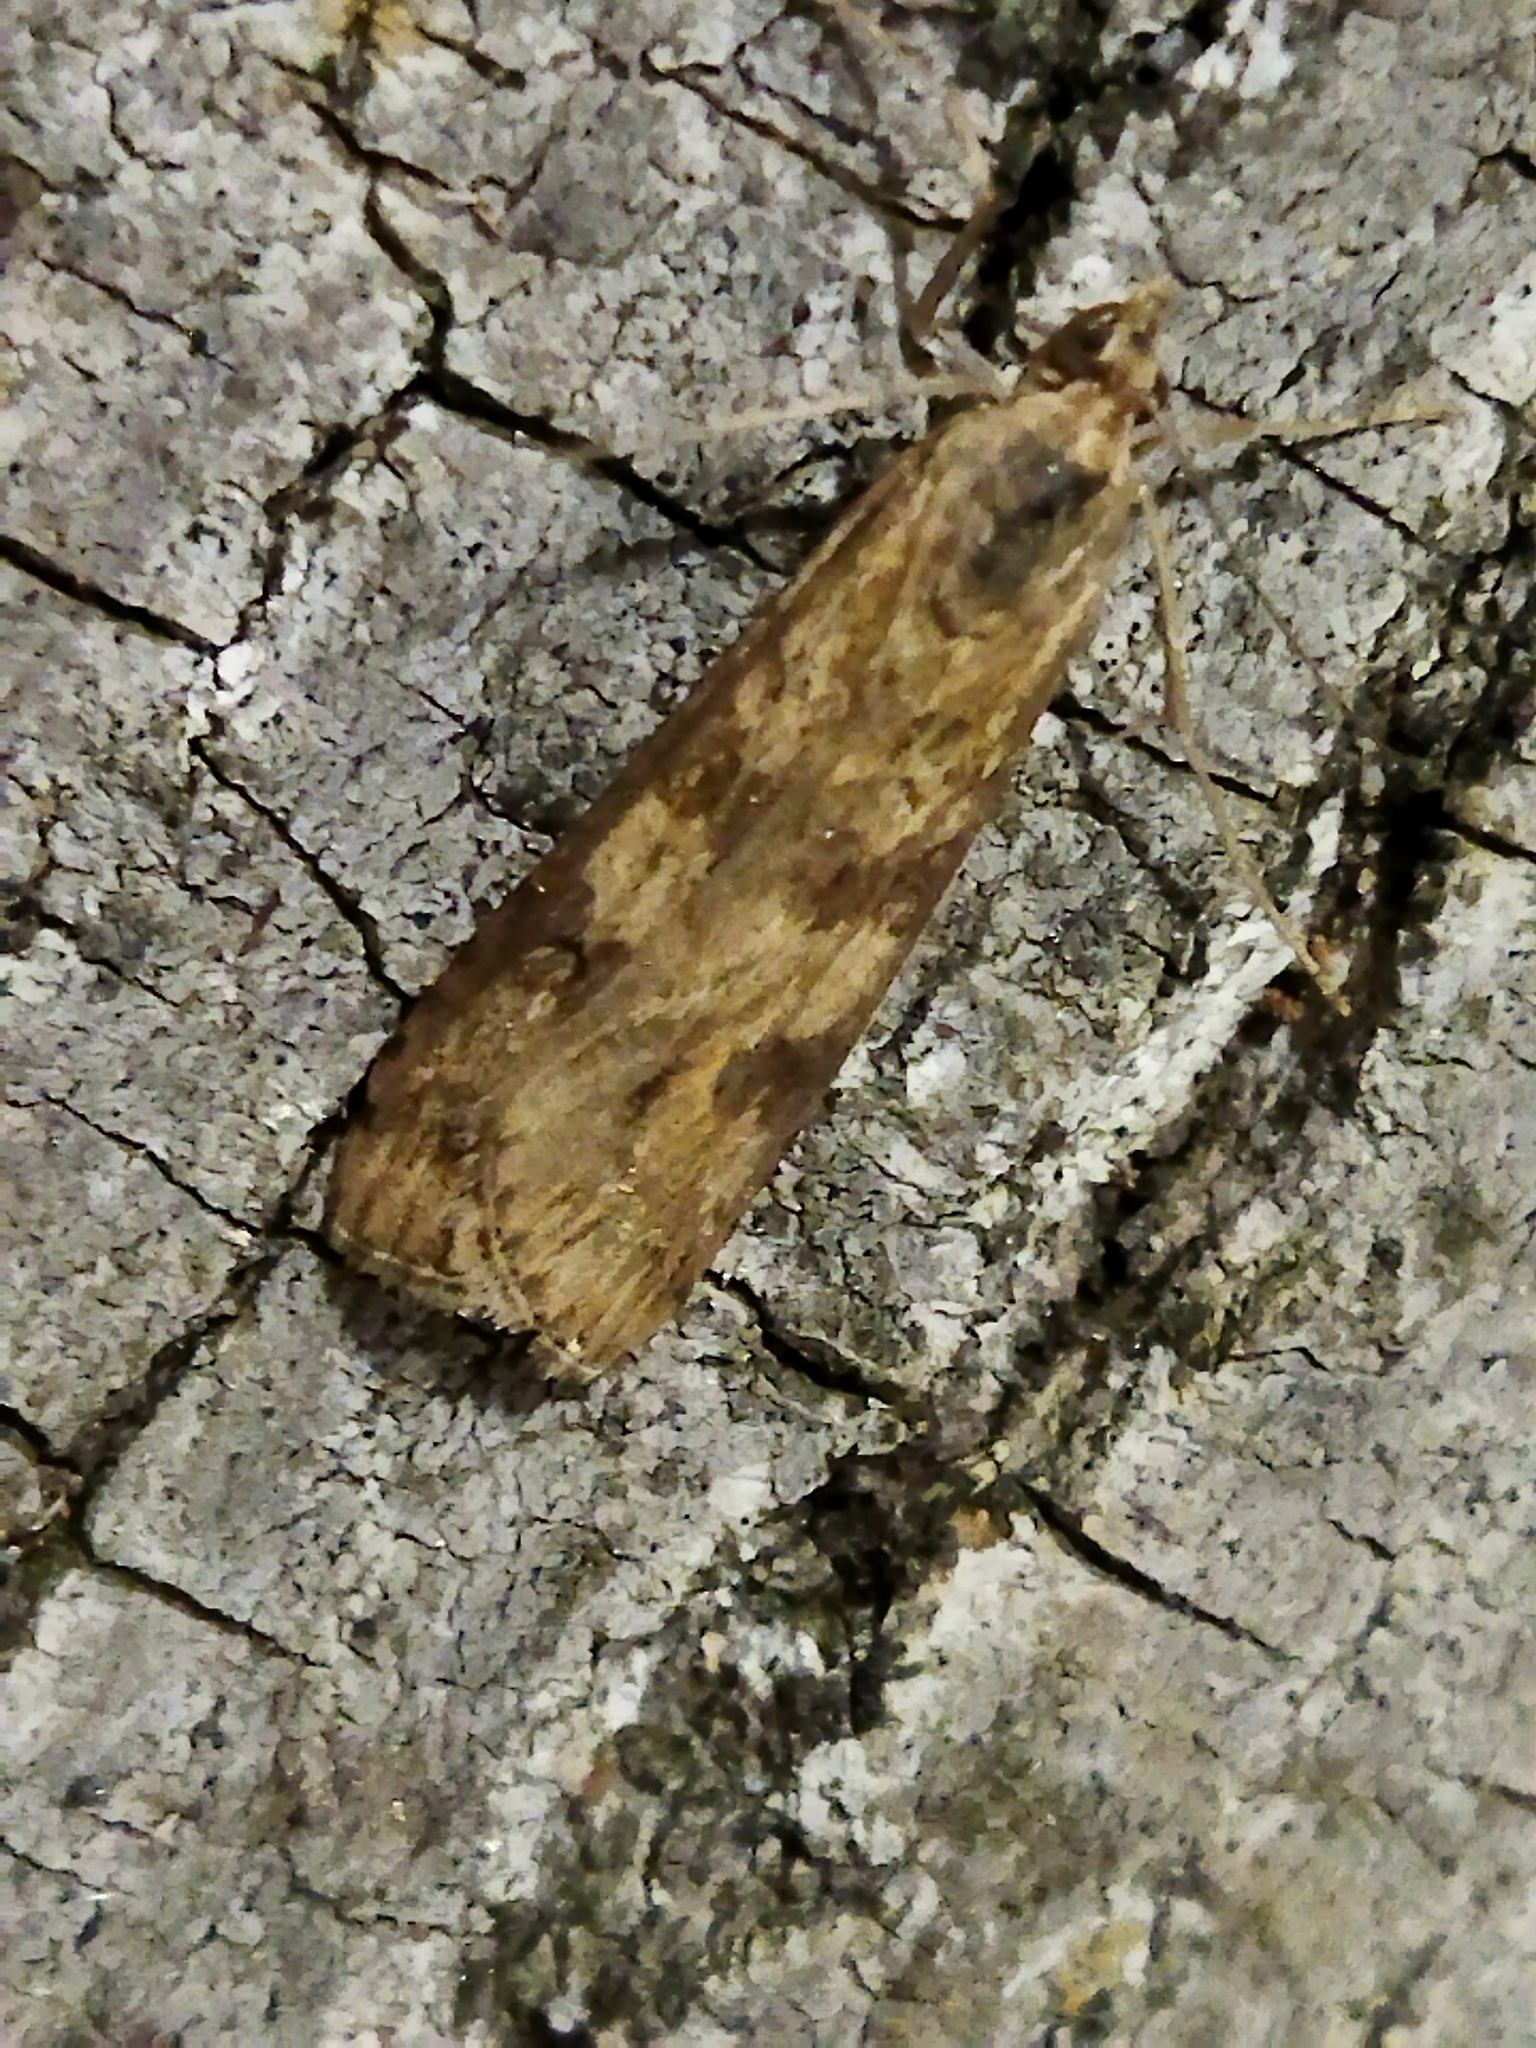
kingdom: Animalia
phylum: Arthropoda
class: Insecta
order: Lepidoptera
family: Crambidae
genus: Nomophila
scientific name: Nomophila noctuella
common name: Rush veneer
